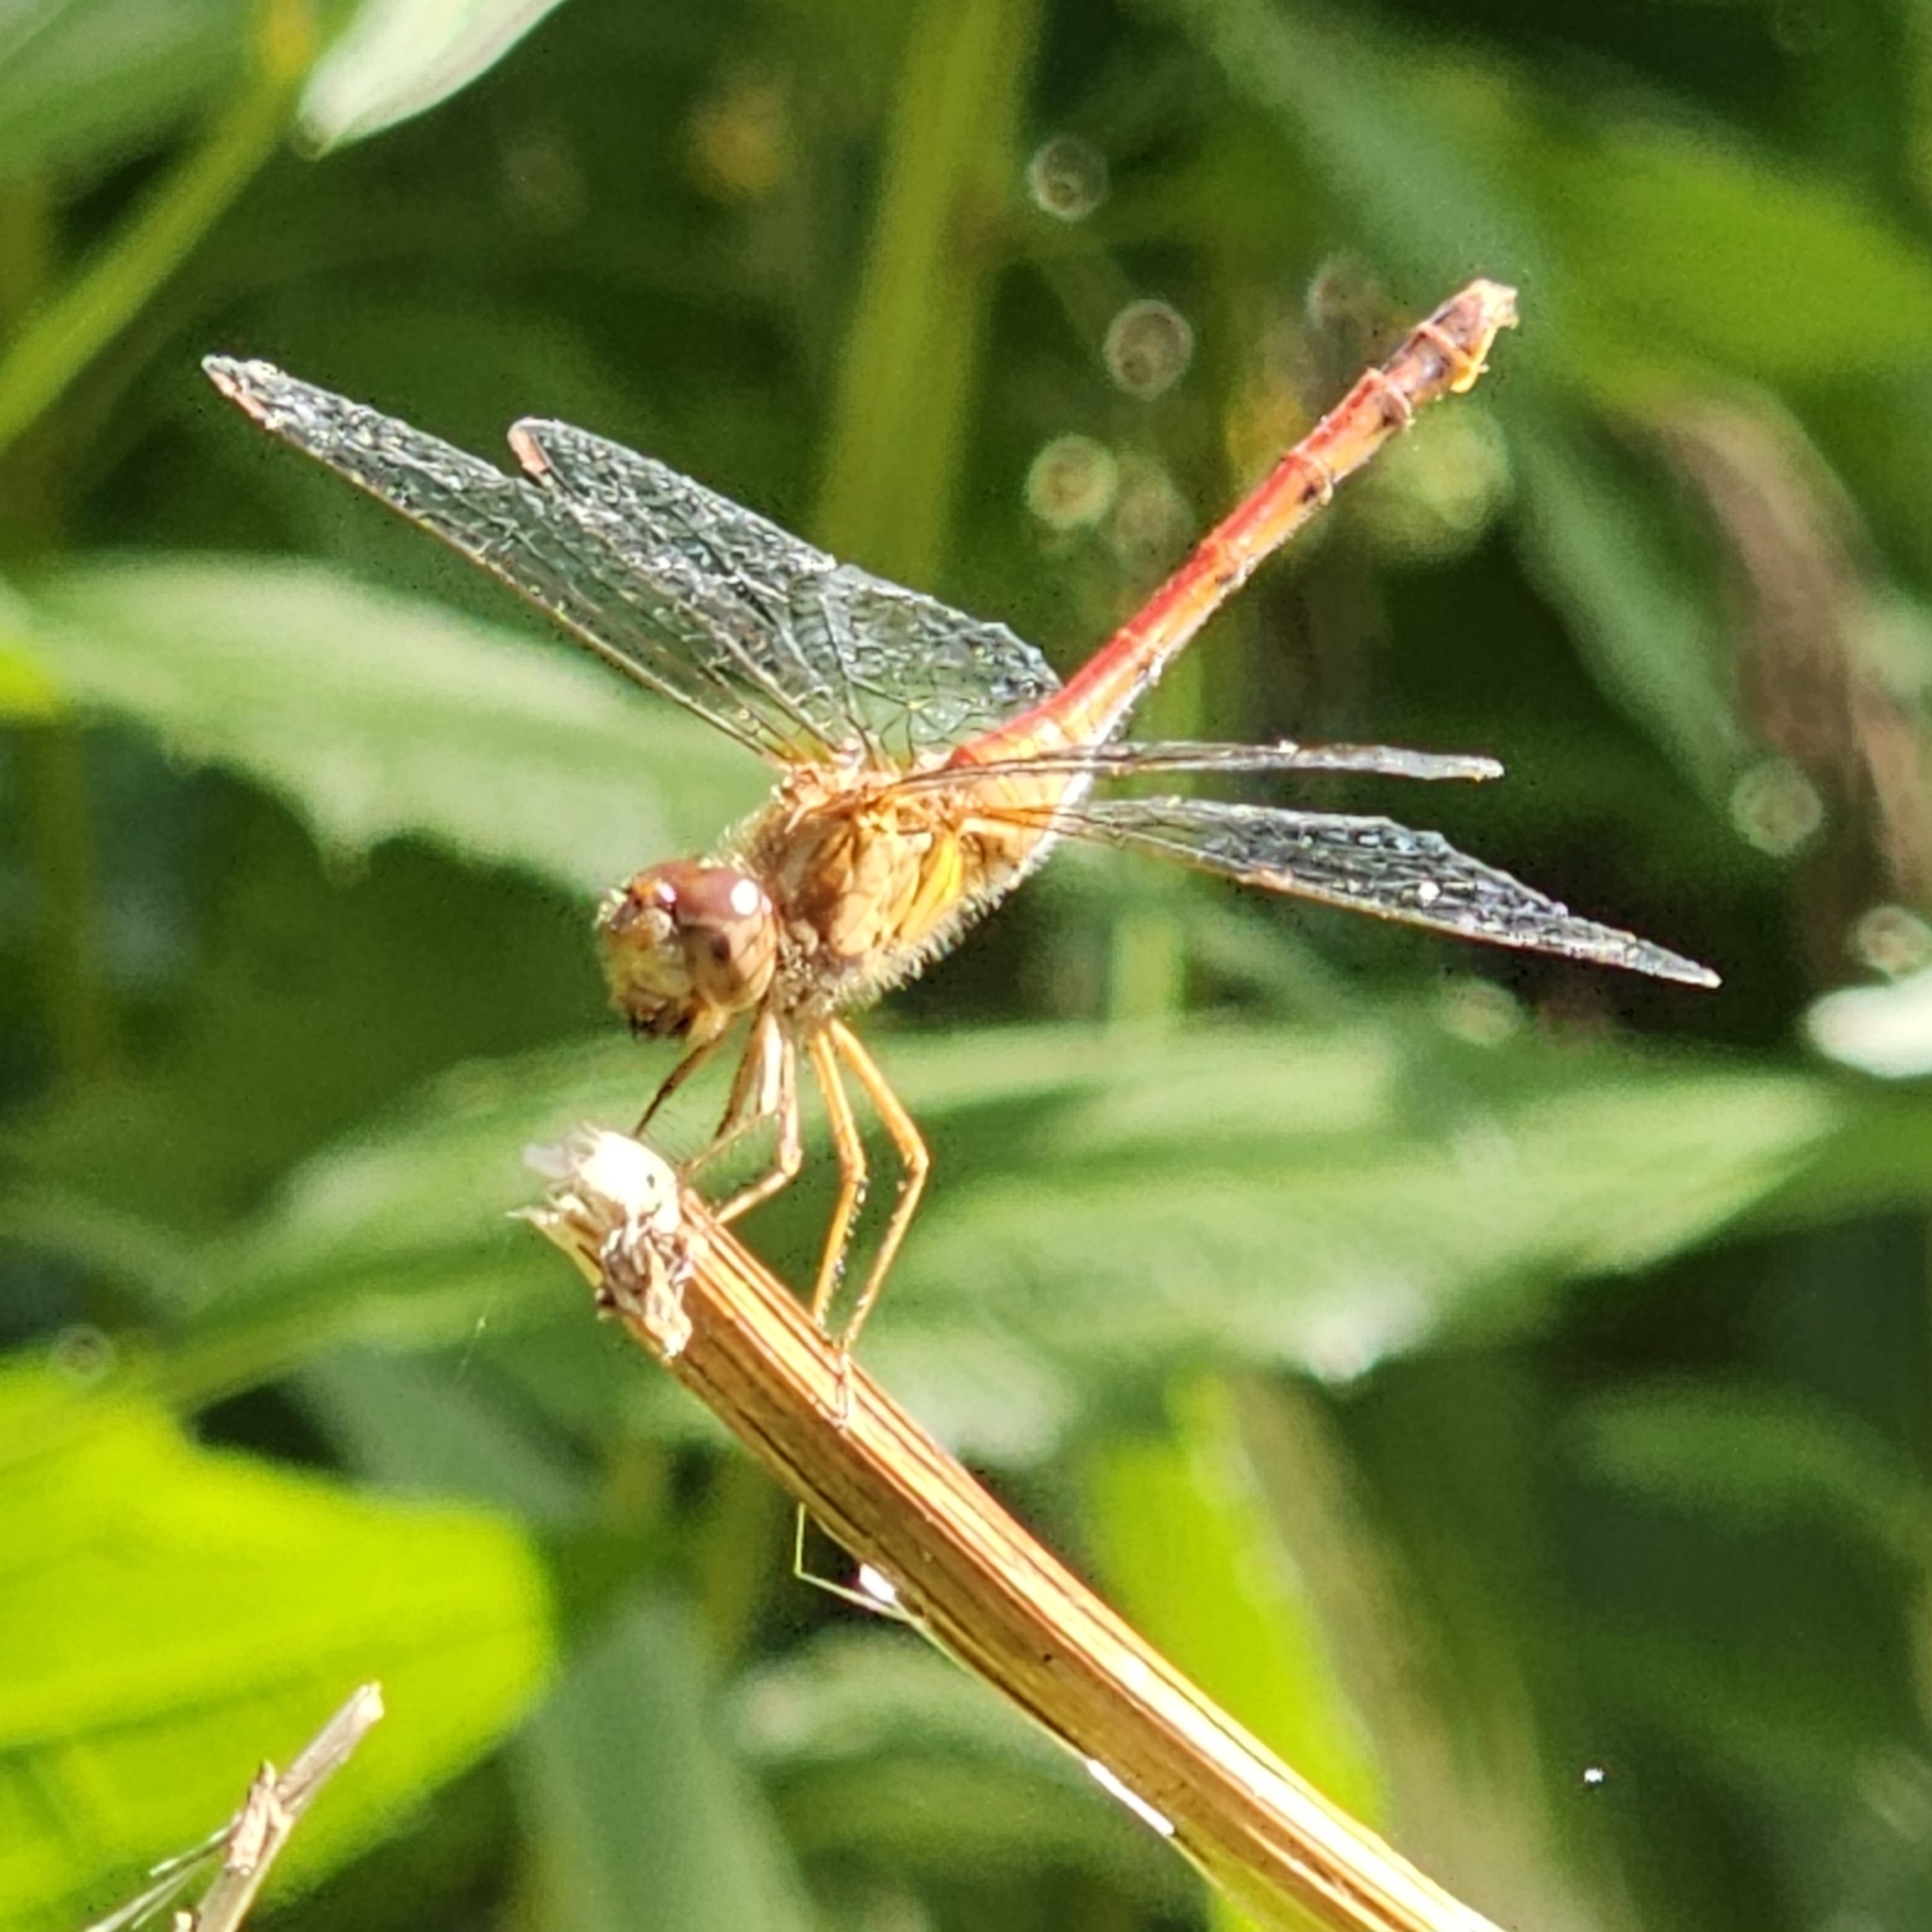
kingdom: Animalia
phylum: Arthropoda
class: Insecta
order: Odonata
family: Libellulidae
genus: Sympetrum
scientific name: Sympetrum vicinum
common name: Autumn meadowhawk
